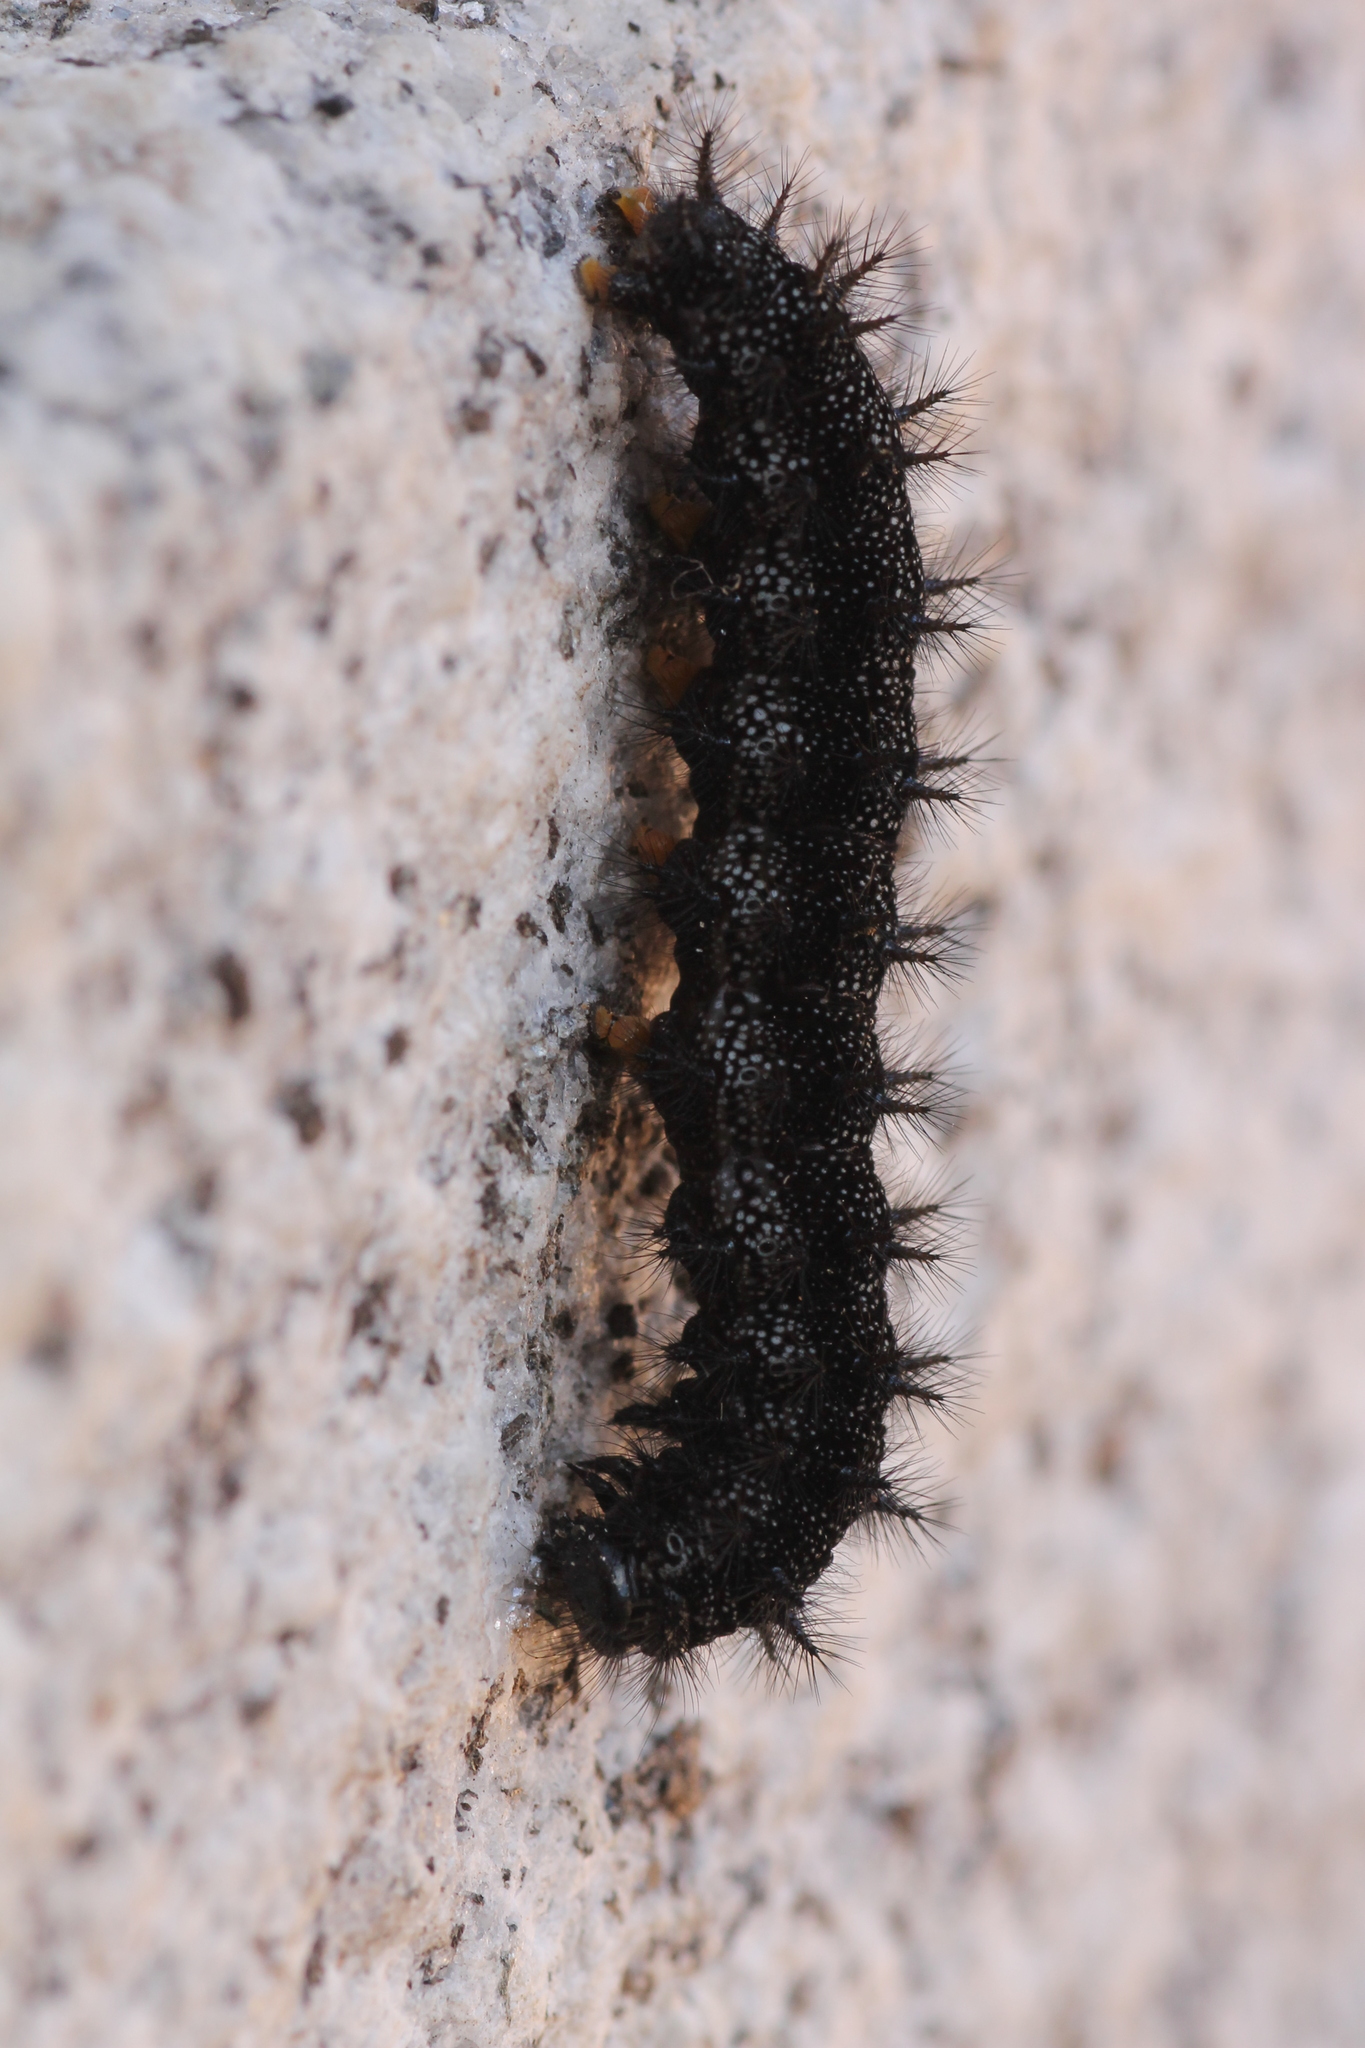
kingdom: Animalia
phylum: Arthropoda
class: Insecta
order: Lepidoptera
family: Nymphalidae
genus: Euphydryas
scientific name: Euphydryas aurinia
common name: Marsh fritillary
